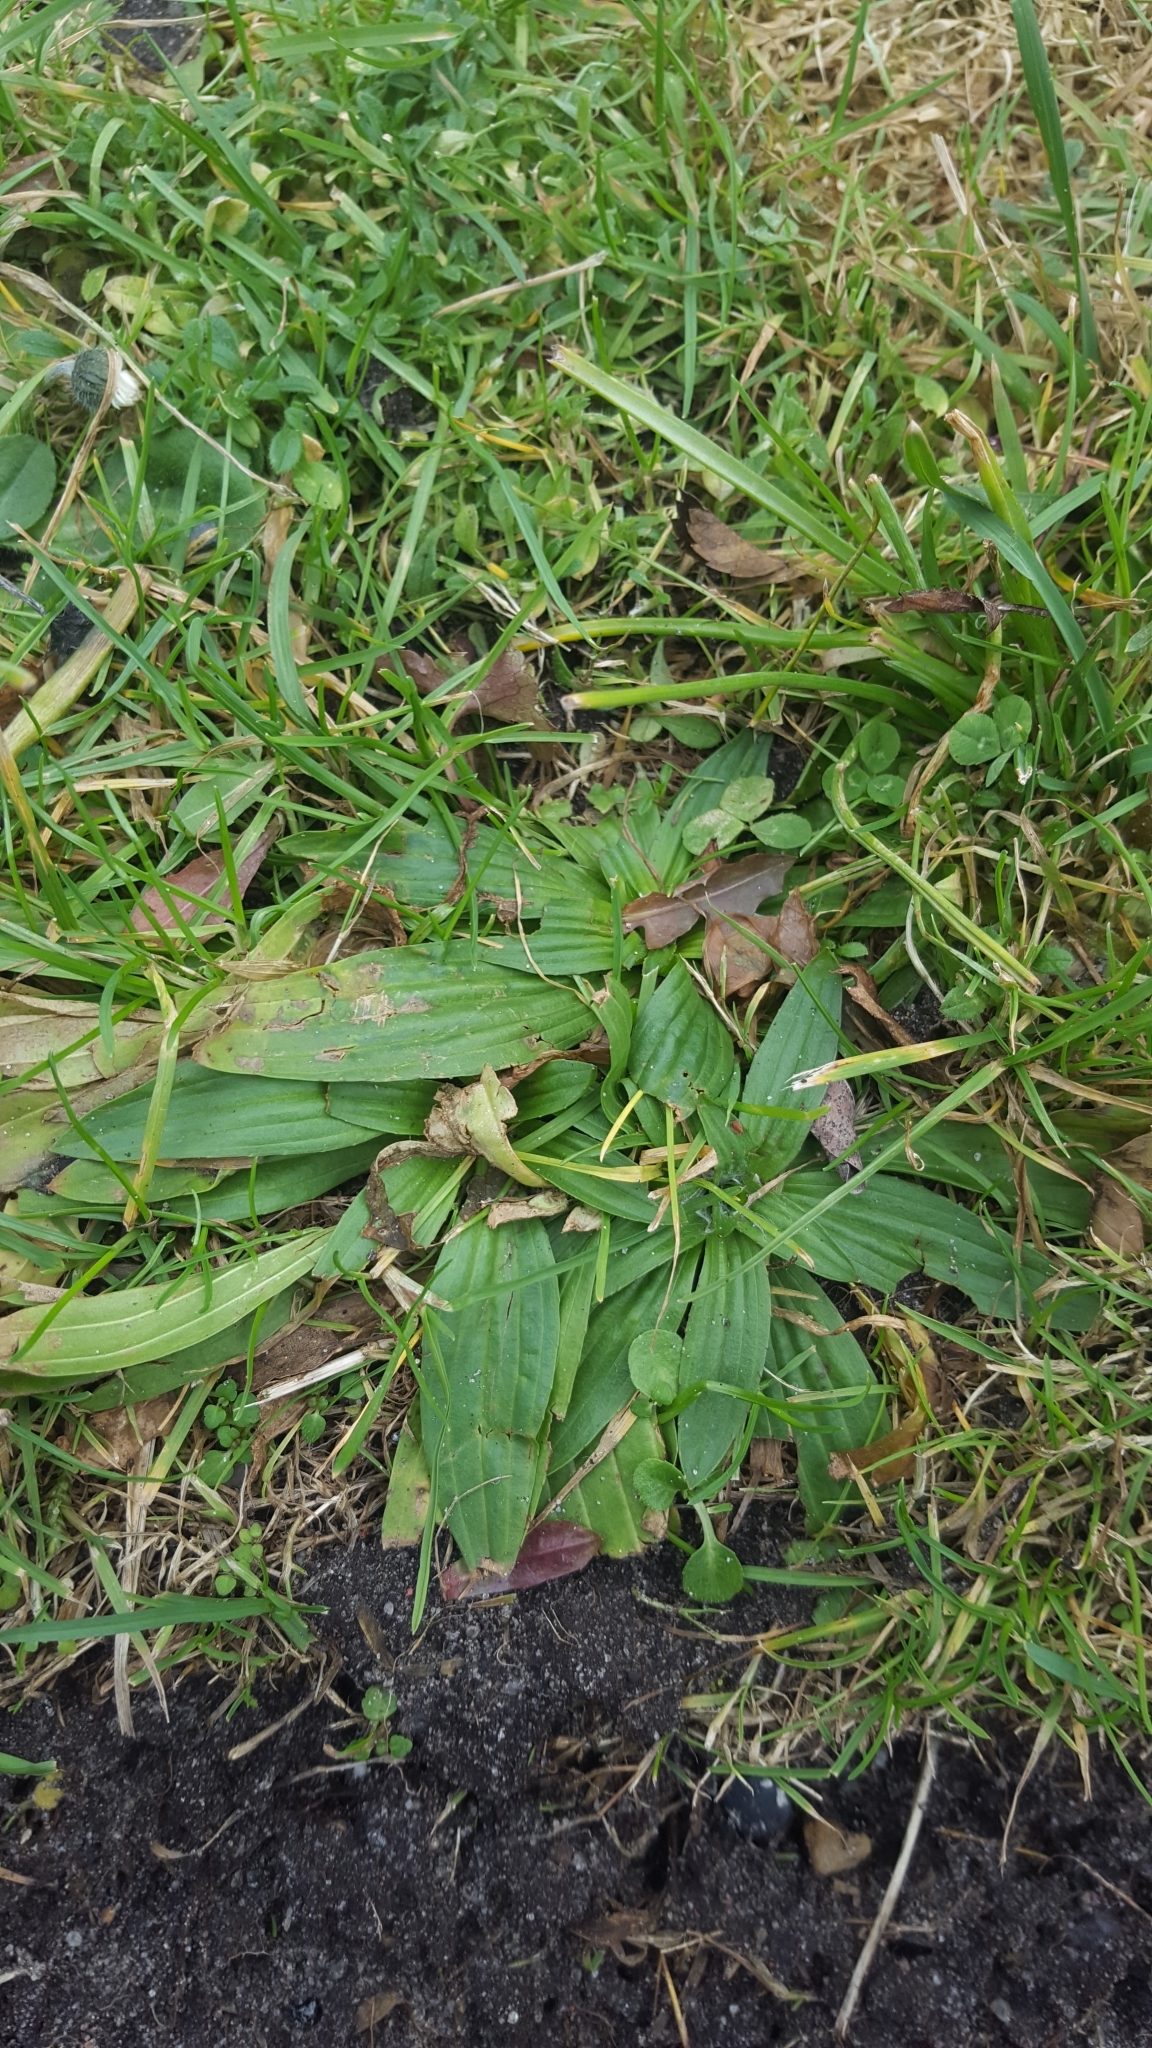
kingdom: Plantae
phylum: Tracheophyta
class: Magnoliopsida
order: Lamiales
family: Plantaginaceae
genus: Plantago
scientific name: Plantago lanceolata
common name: Ribwort plantain
